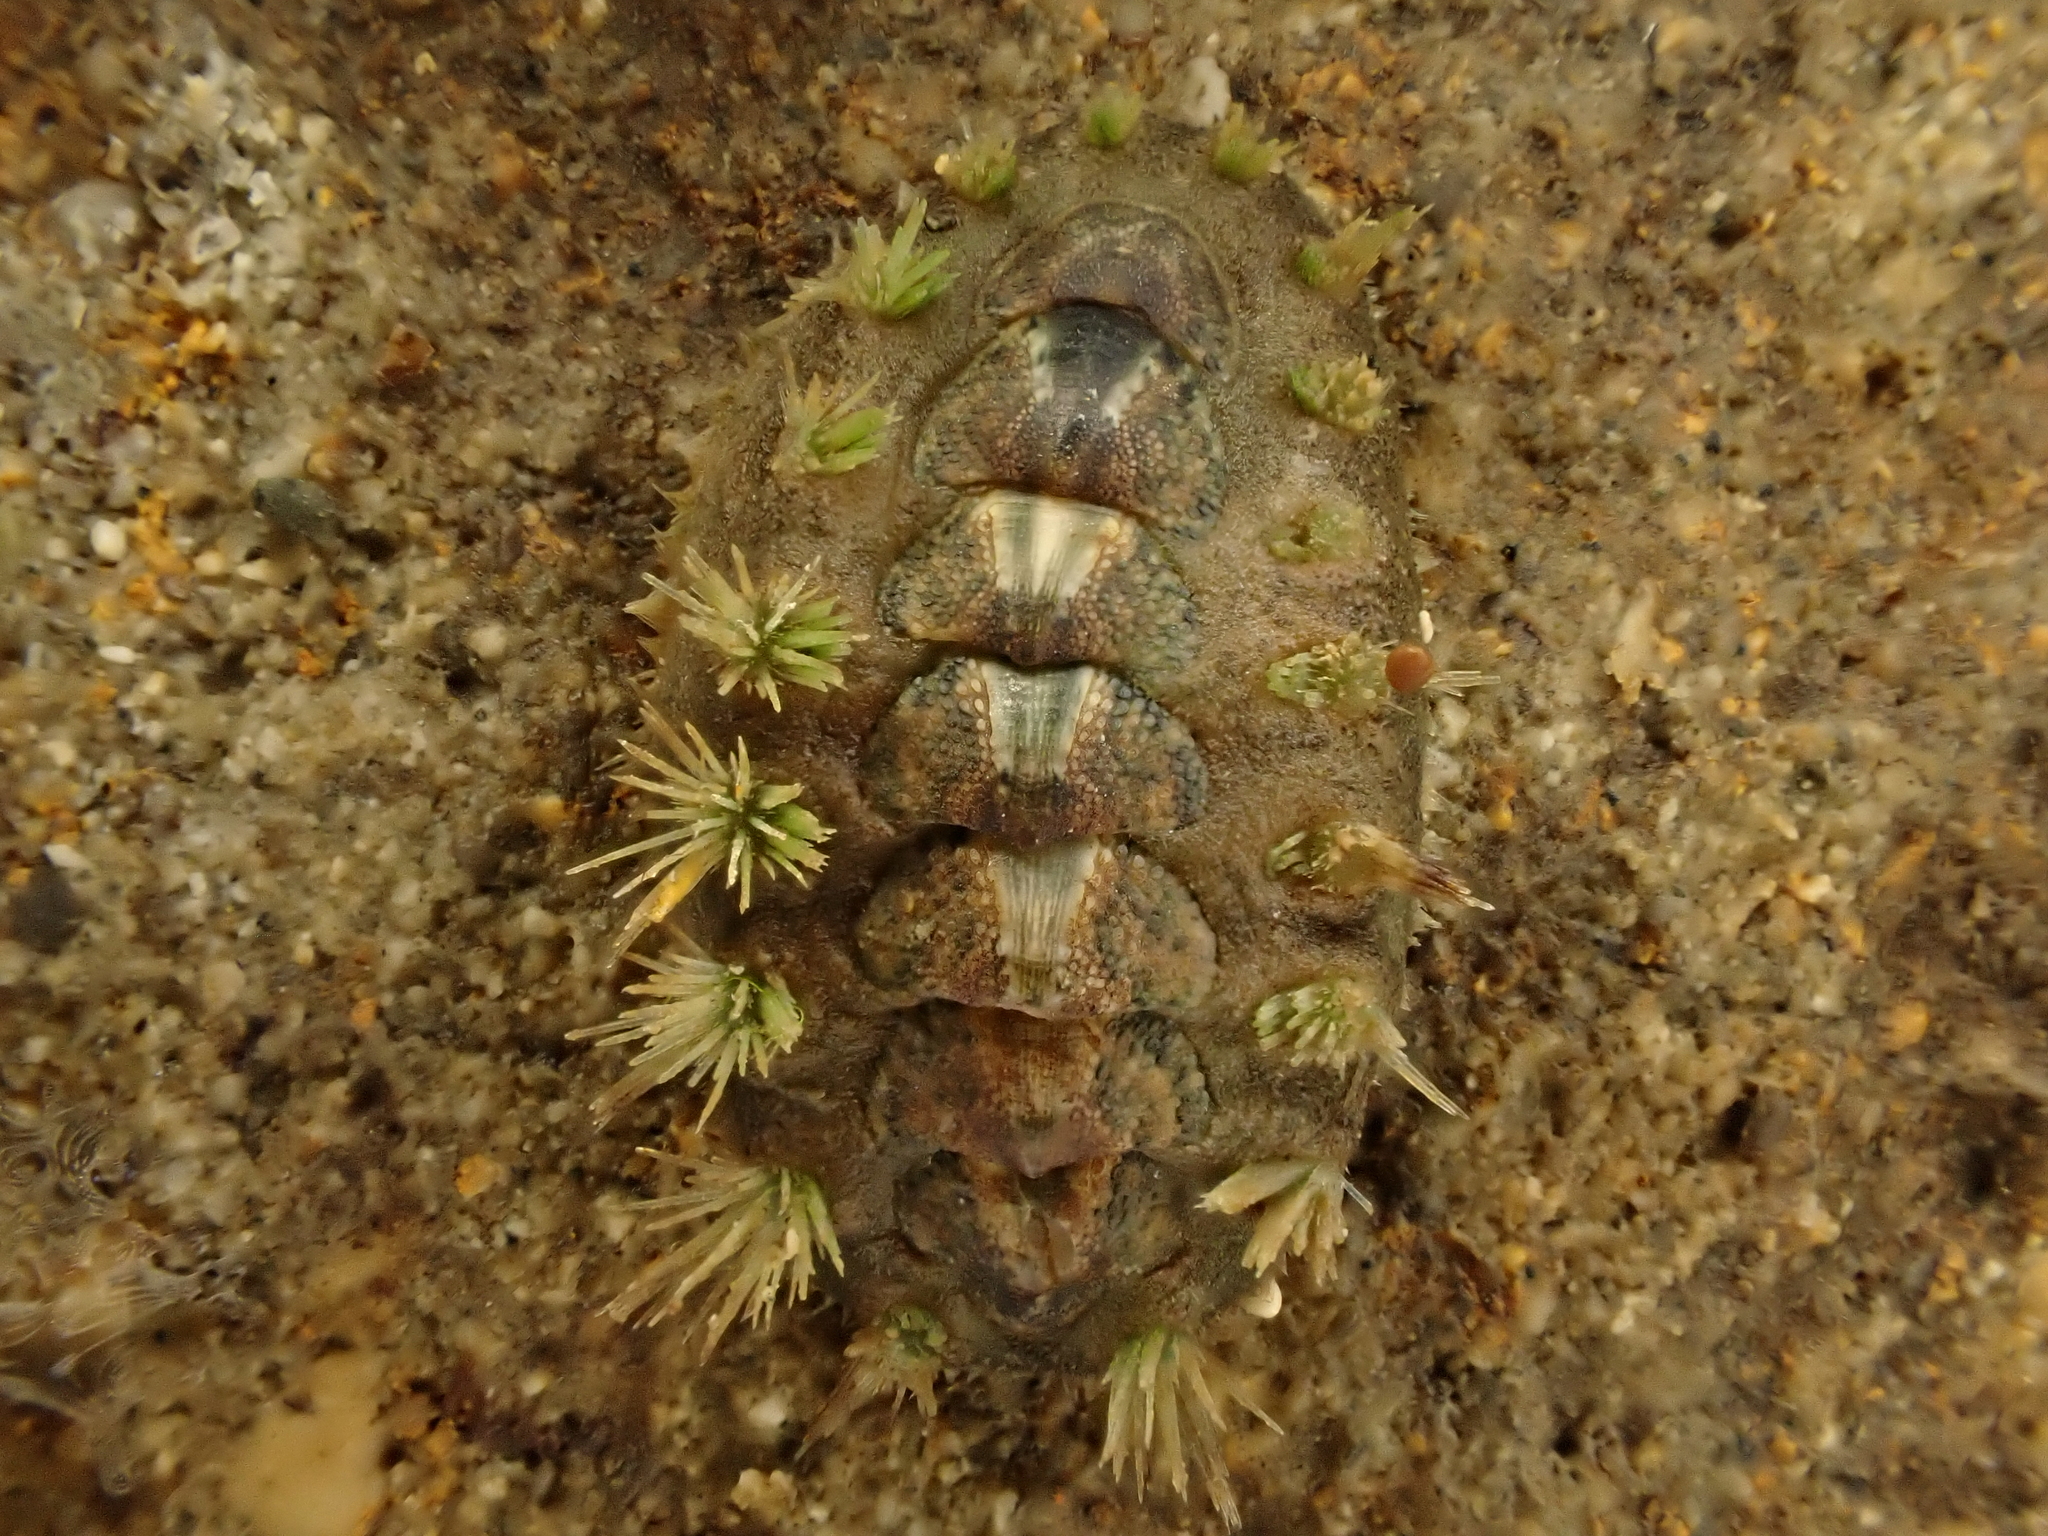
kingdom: Animalia
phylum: Mollusca
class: Polyplacophora
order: Chitonida
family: Acanthochitonidae
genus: Acanthochitona
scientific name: Acanthochitona zelandica
